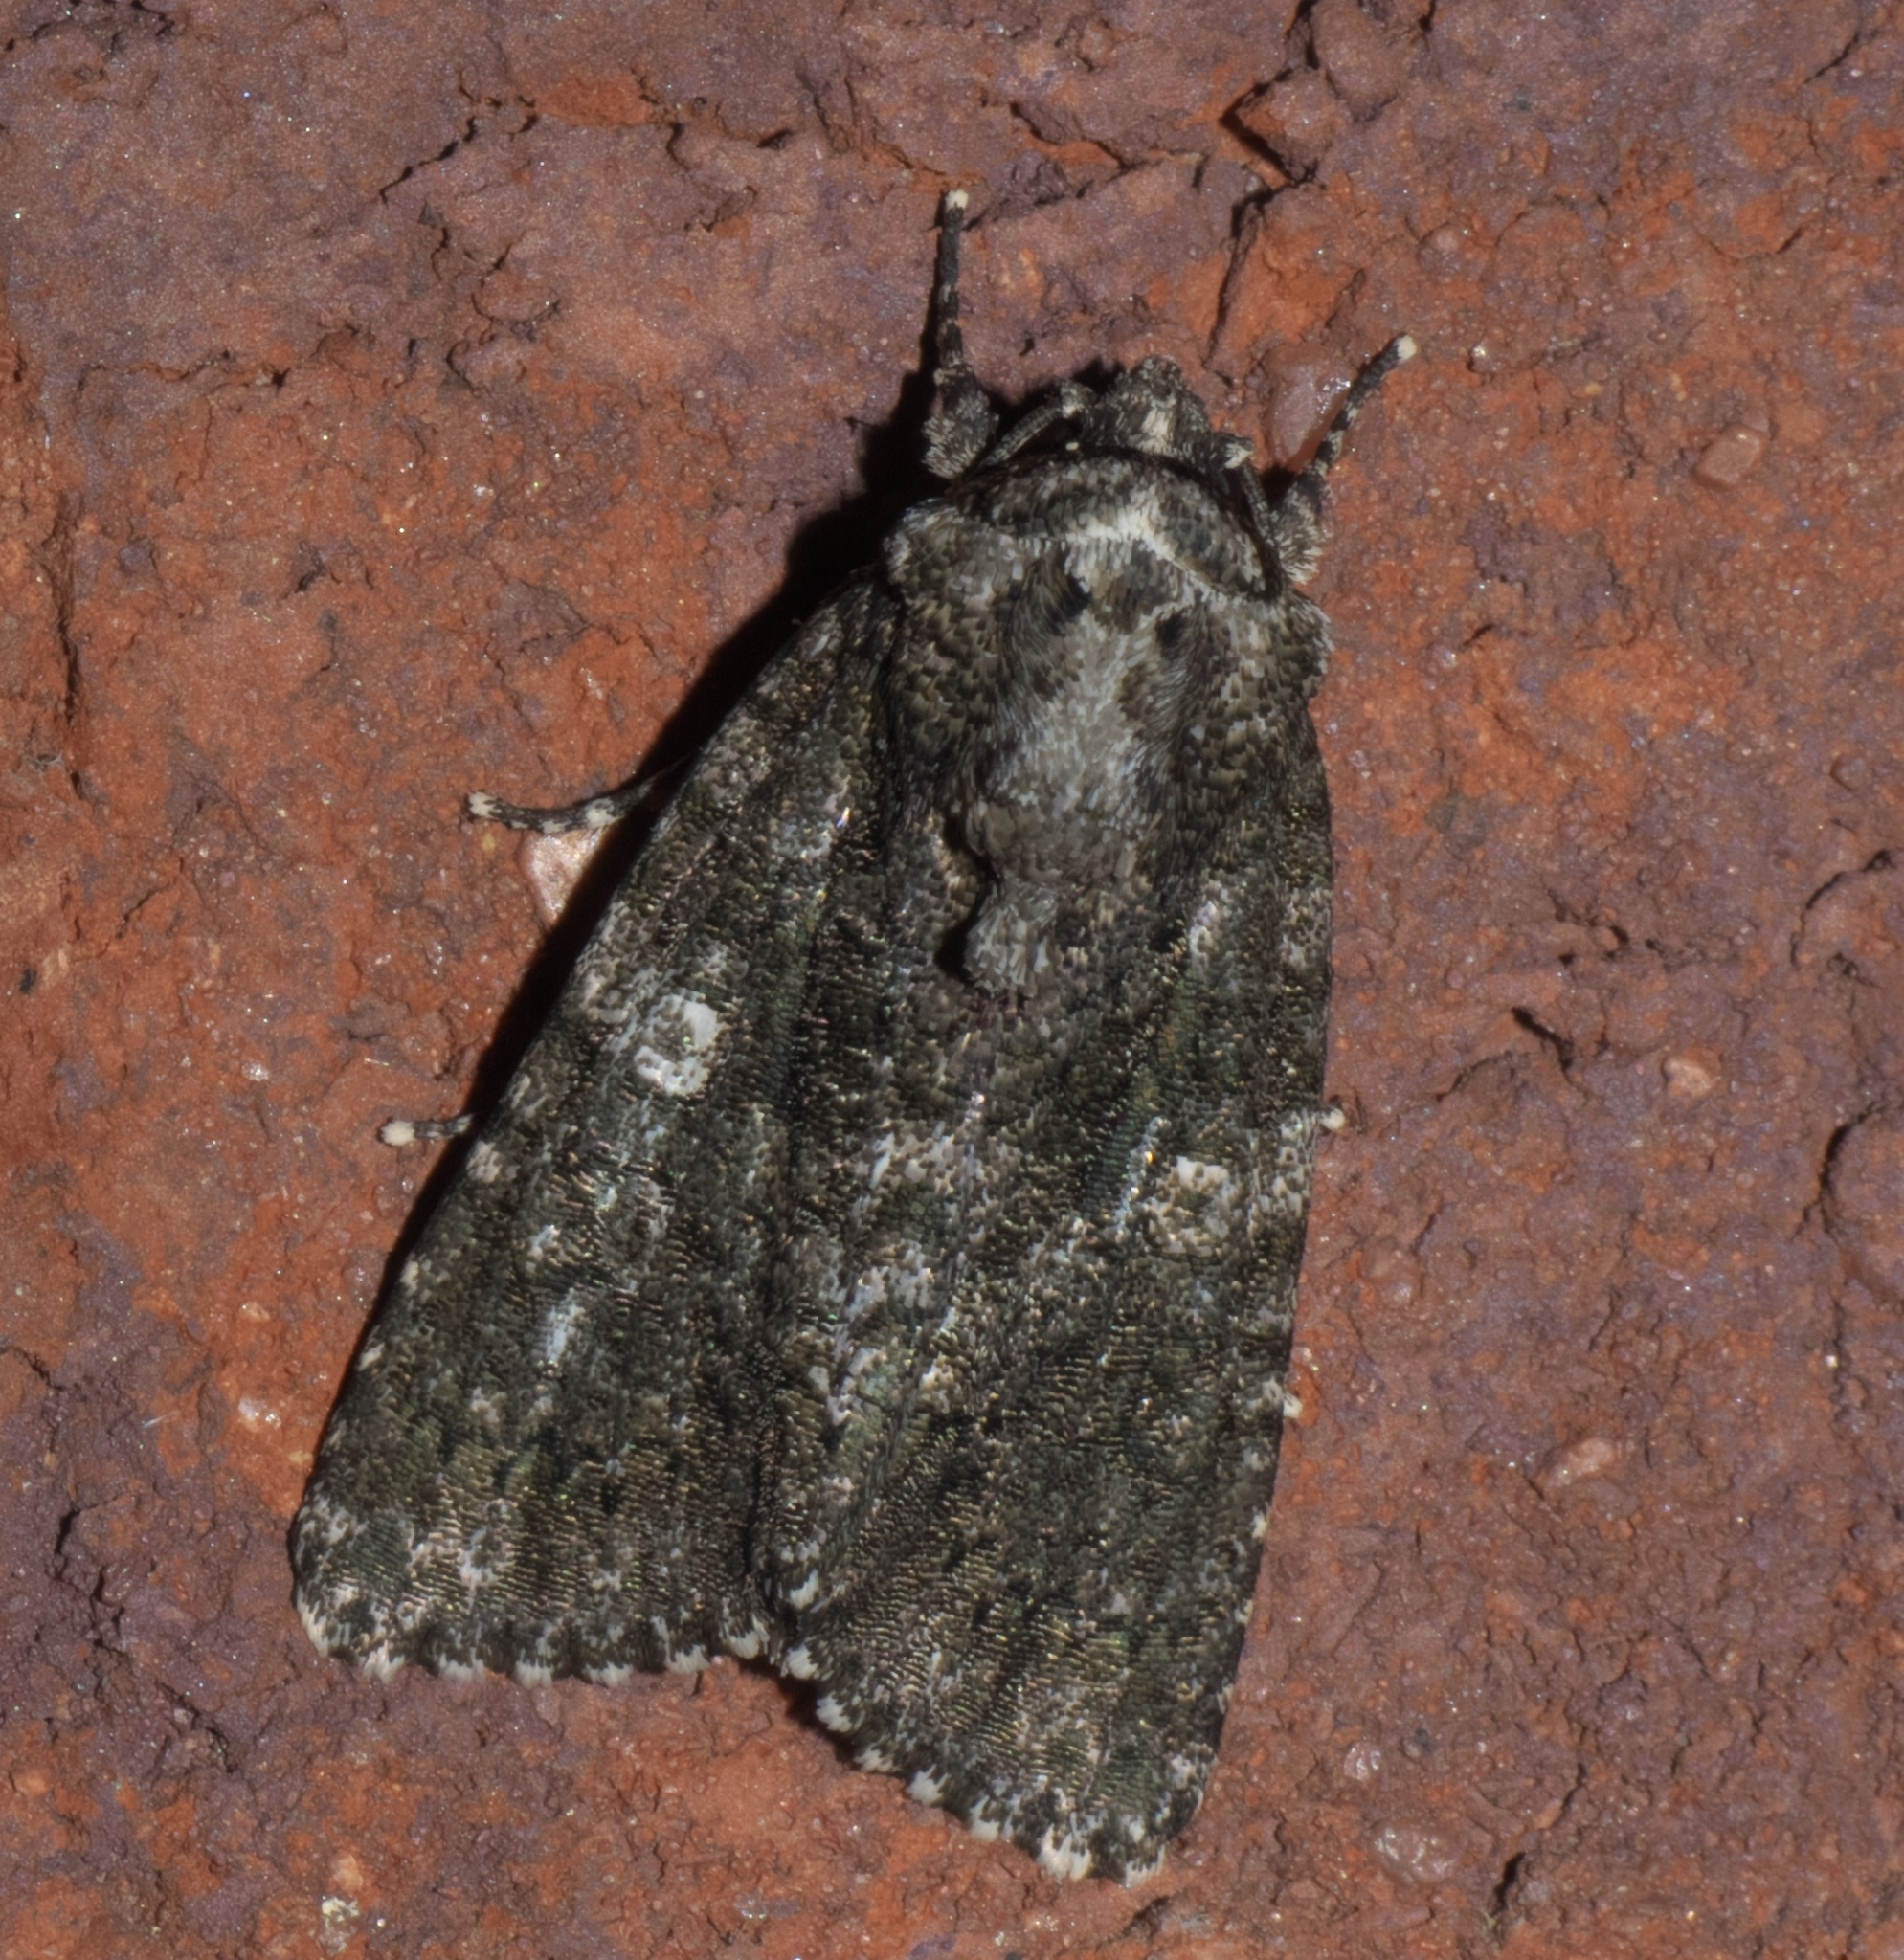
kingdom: Animalia
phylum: Arthropoda
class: Insecta
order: Lepidoptera
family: Noctuidae
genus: Acronicta
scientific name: Acronicta afflicta
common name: Afflicted dagger moth
